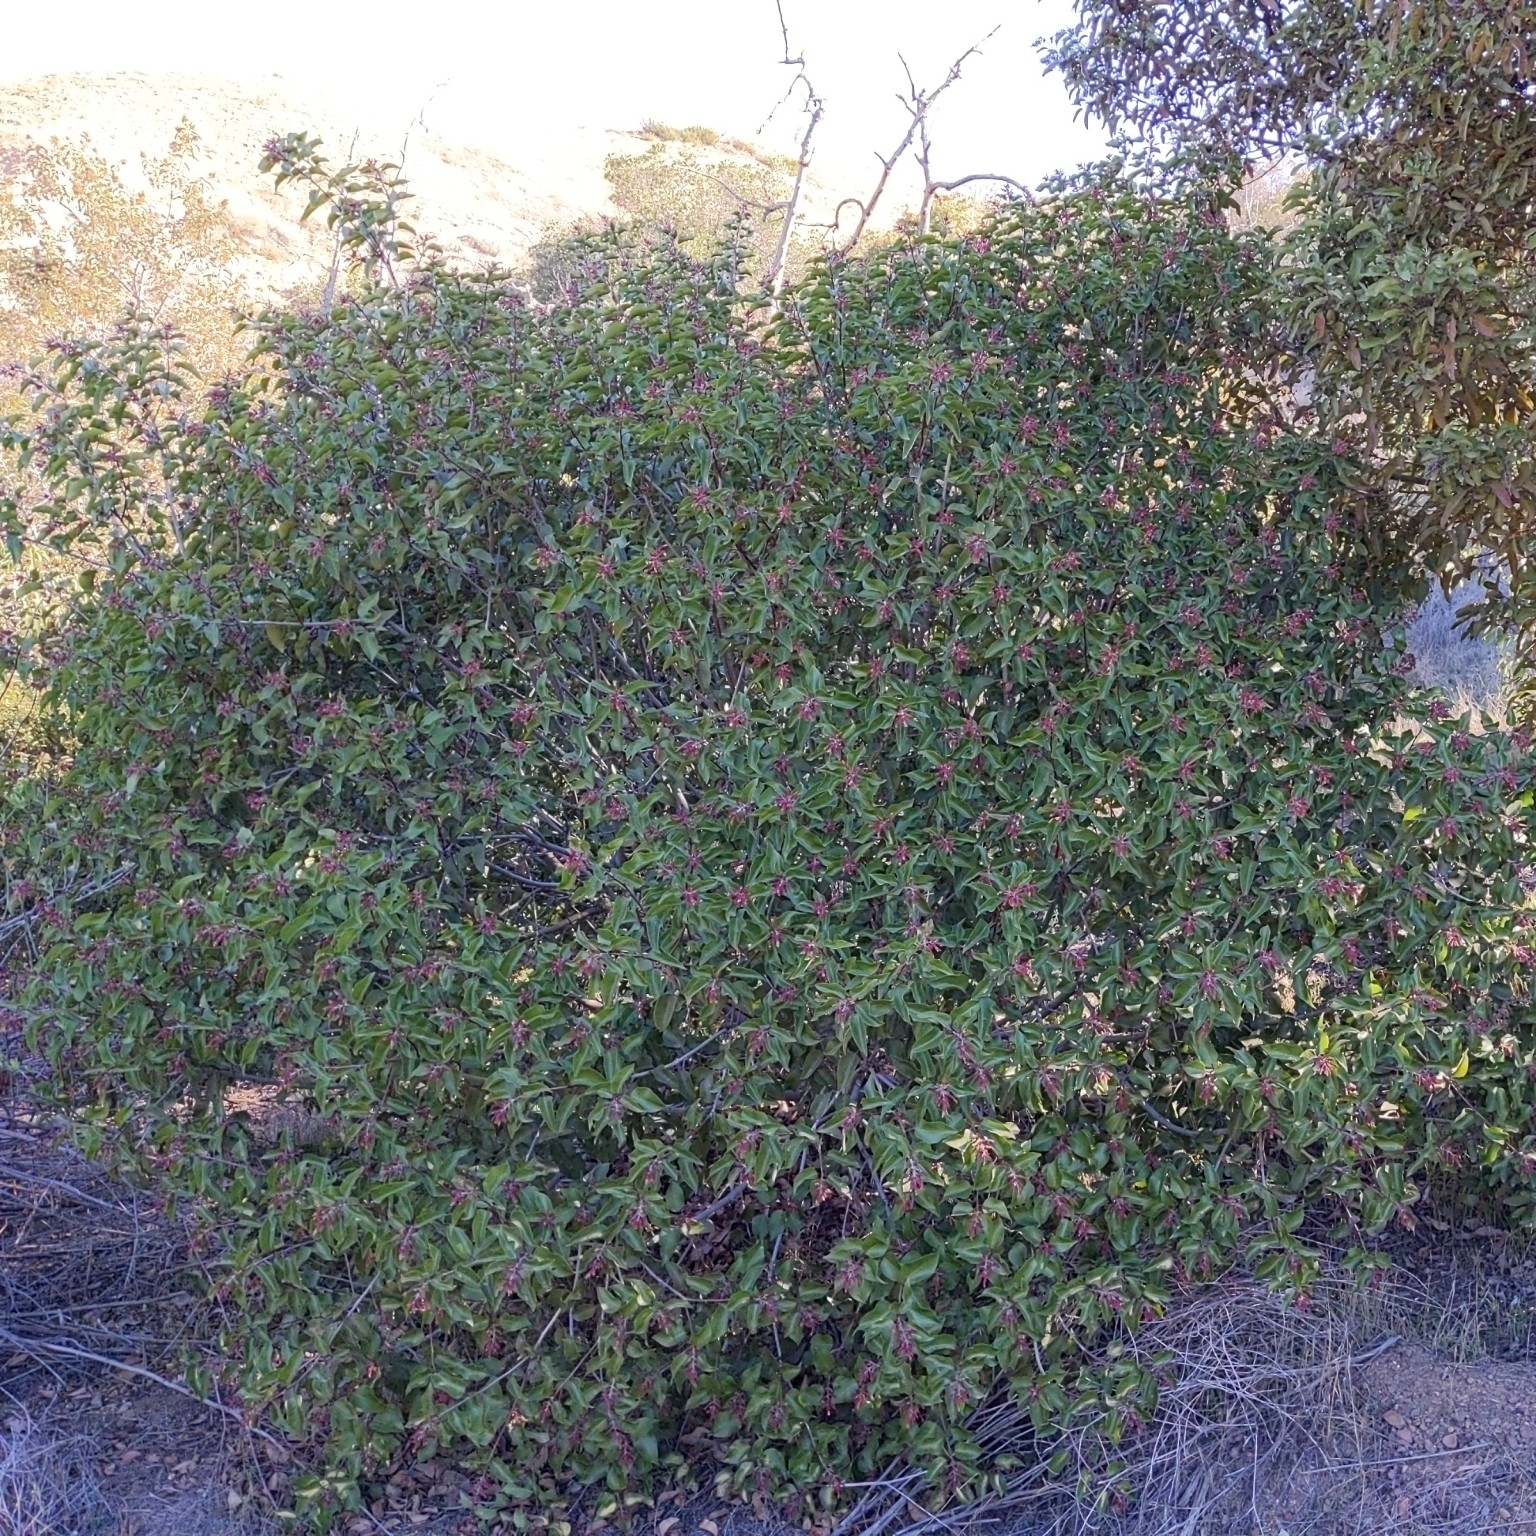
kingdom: Plantae
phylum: Tracheophyta
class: Magnoliopsida
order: Sapindales
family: Anacardiaceae
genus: Rhus
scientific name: Rhus ovata
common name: Sugar sumac
